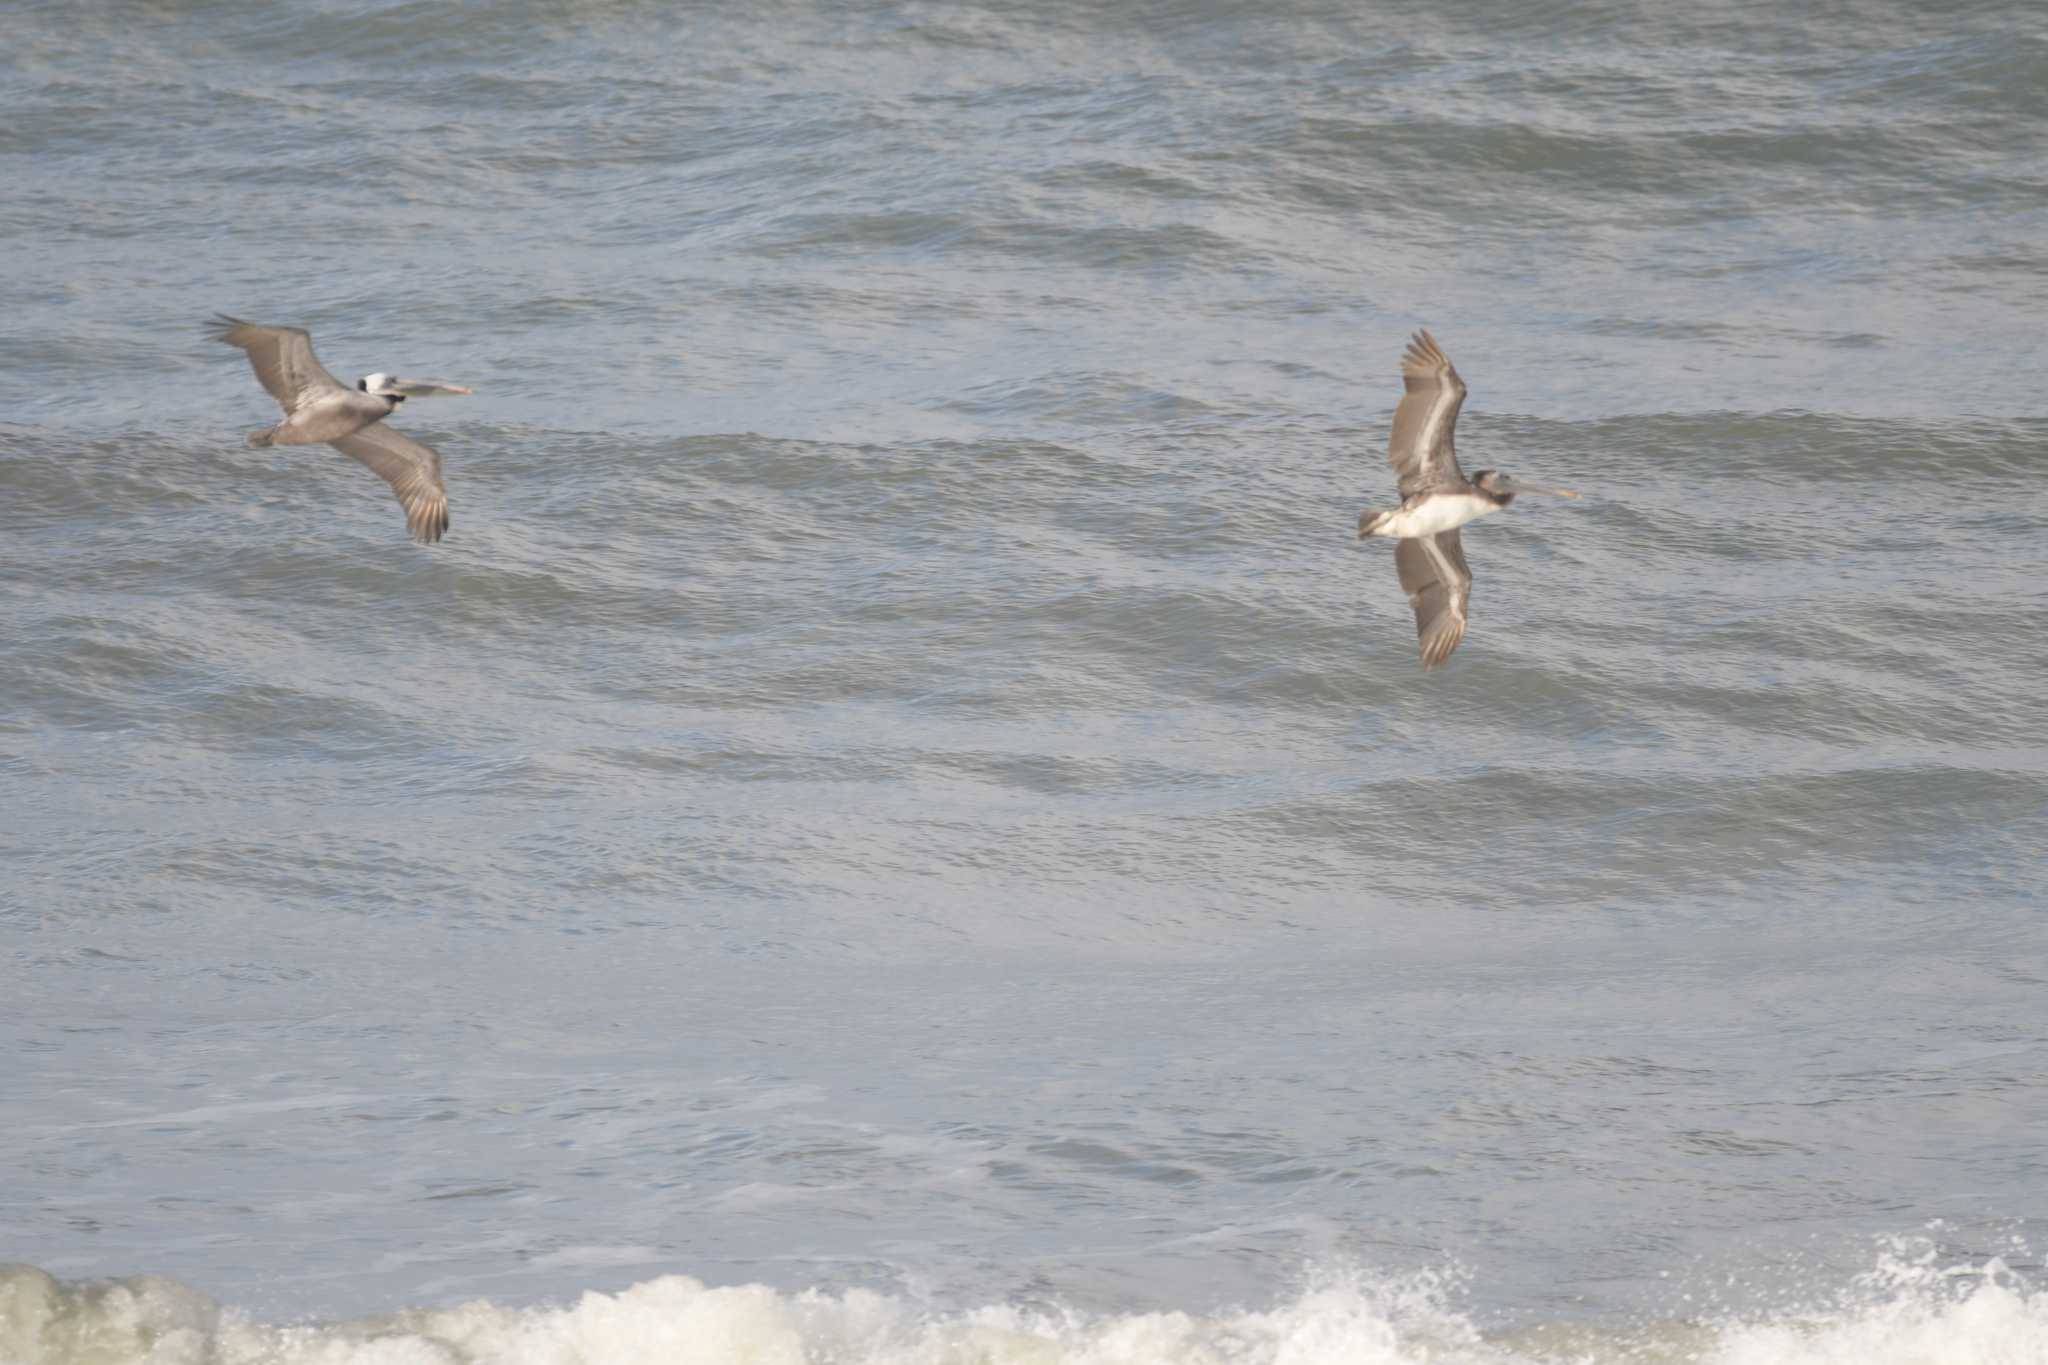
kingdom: Animalia
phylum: Chordata
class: Aves
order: Pelecaniformes
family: Pelecanidae
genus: Pelecanus
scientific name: Pelecanus occidentalis
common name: Brown pelican
